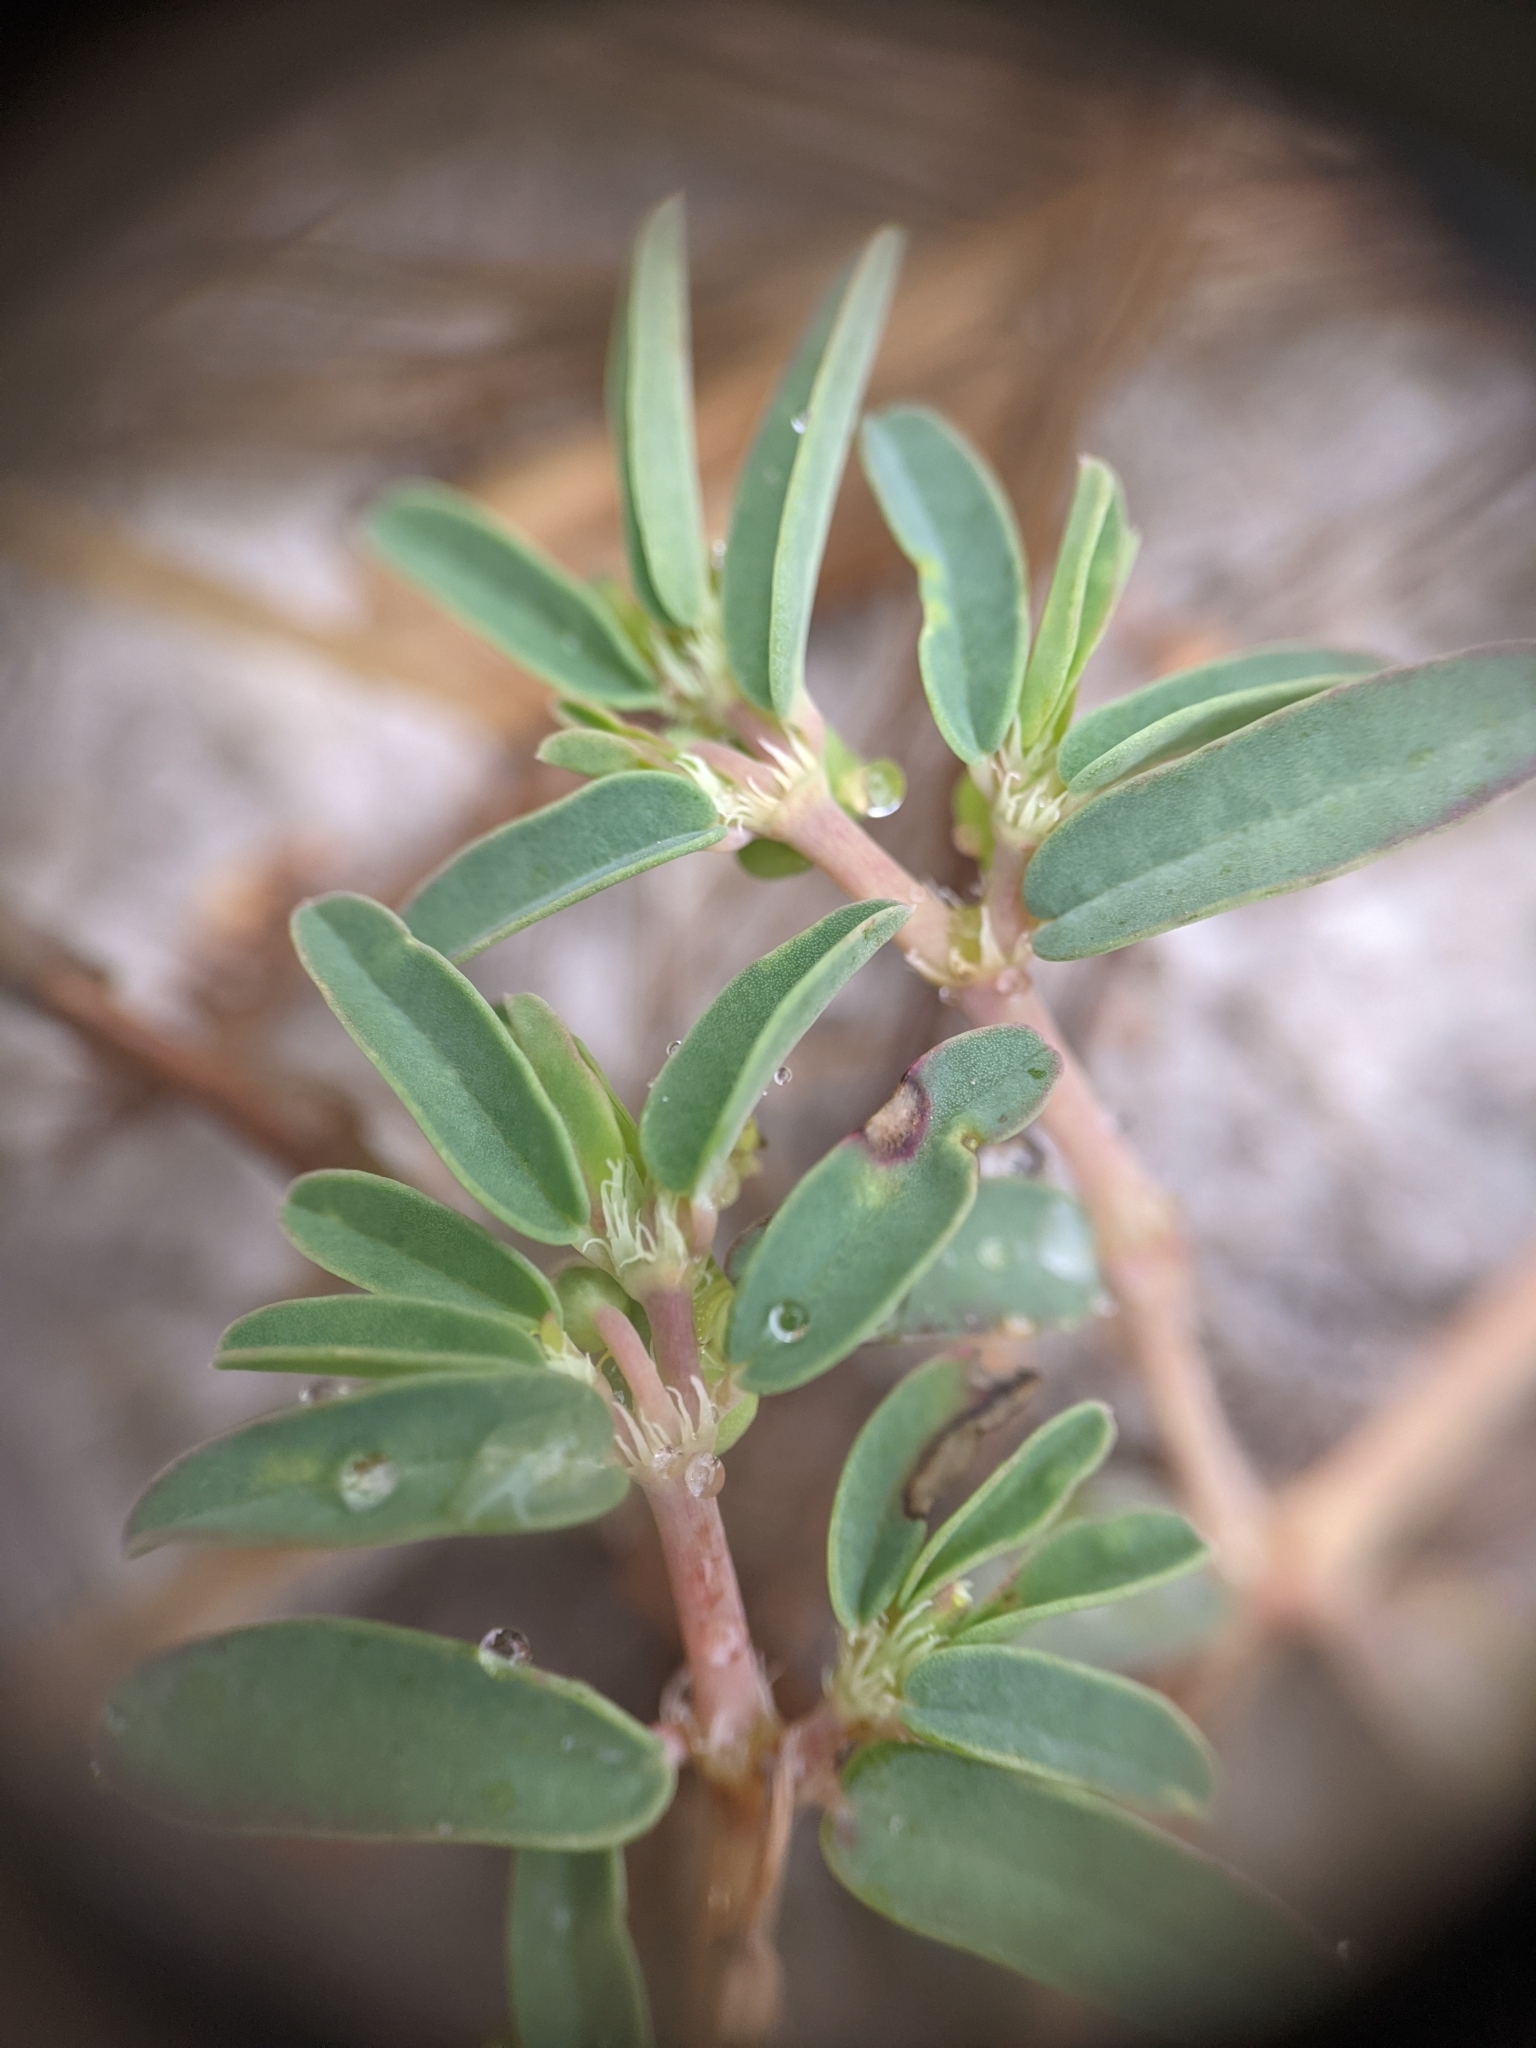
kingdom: Plantae
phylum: Tracheophyta
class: Magnoliopsida
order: Malpighiales
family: Euphorbiaceae
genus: Euphorbia
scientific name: Euphorbia bombensis
